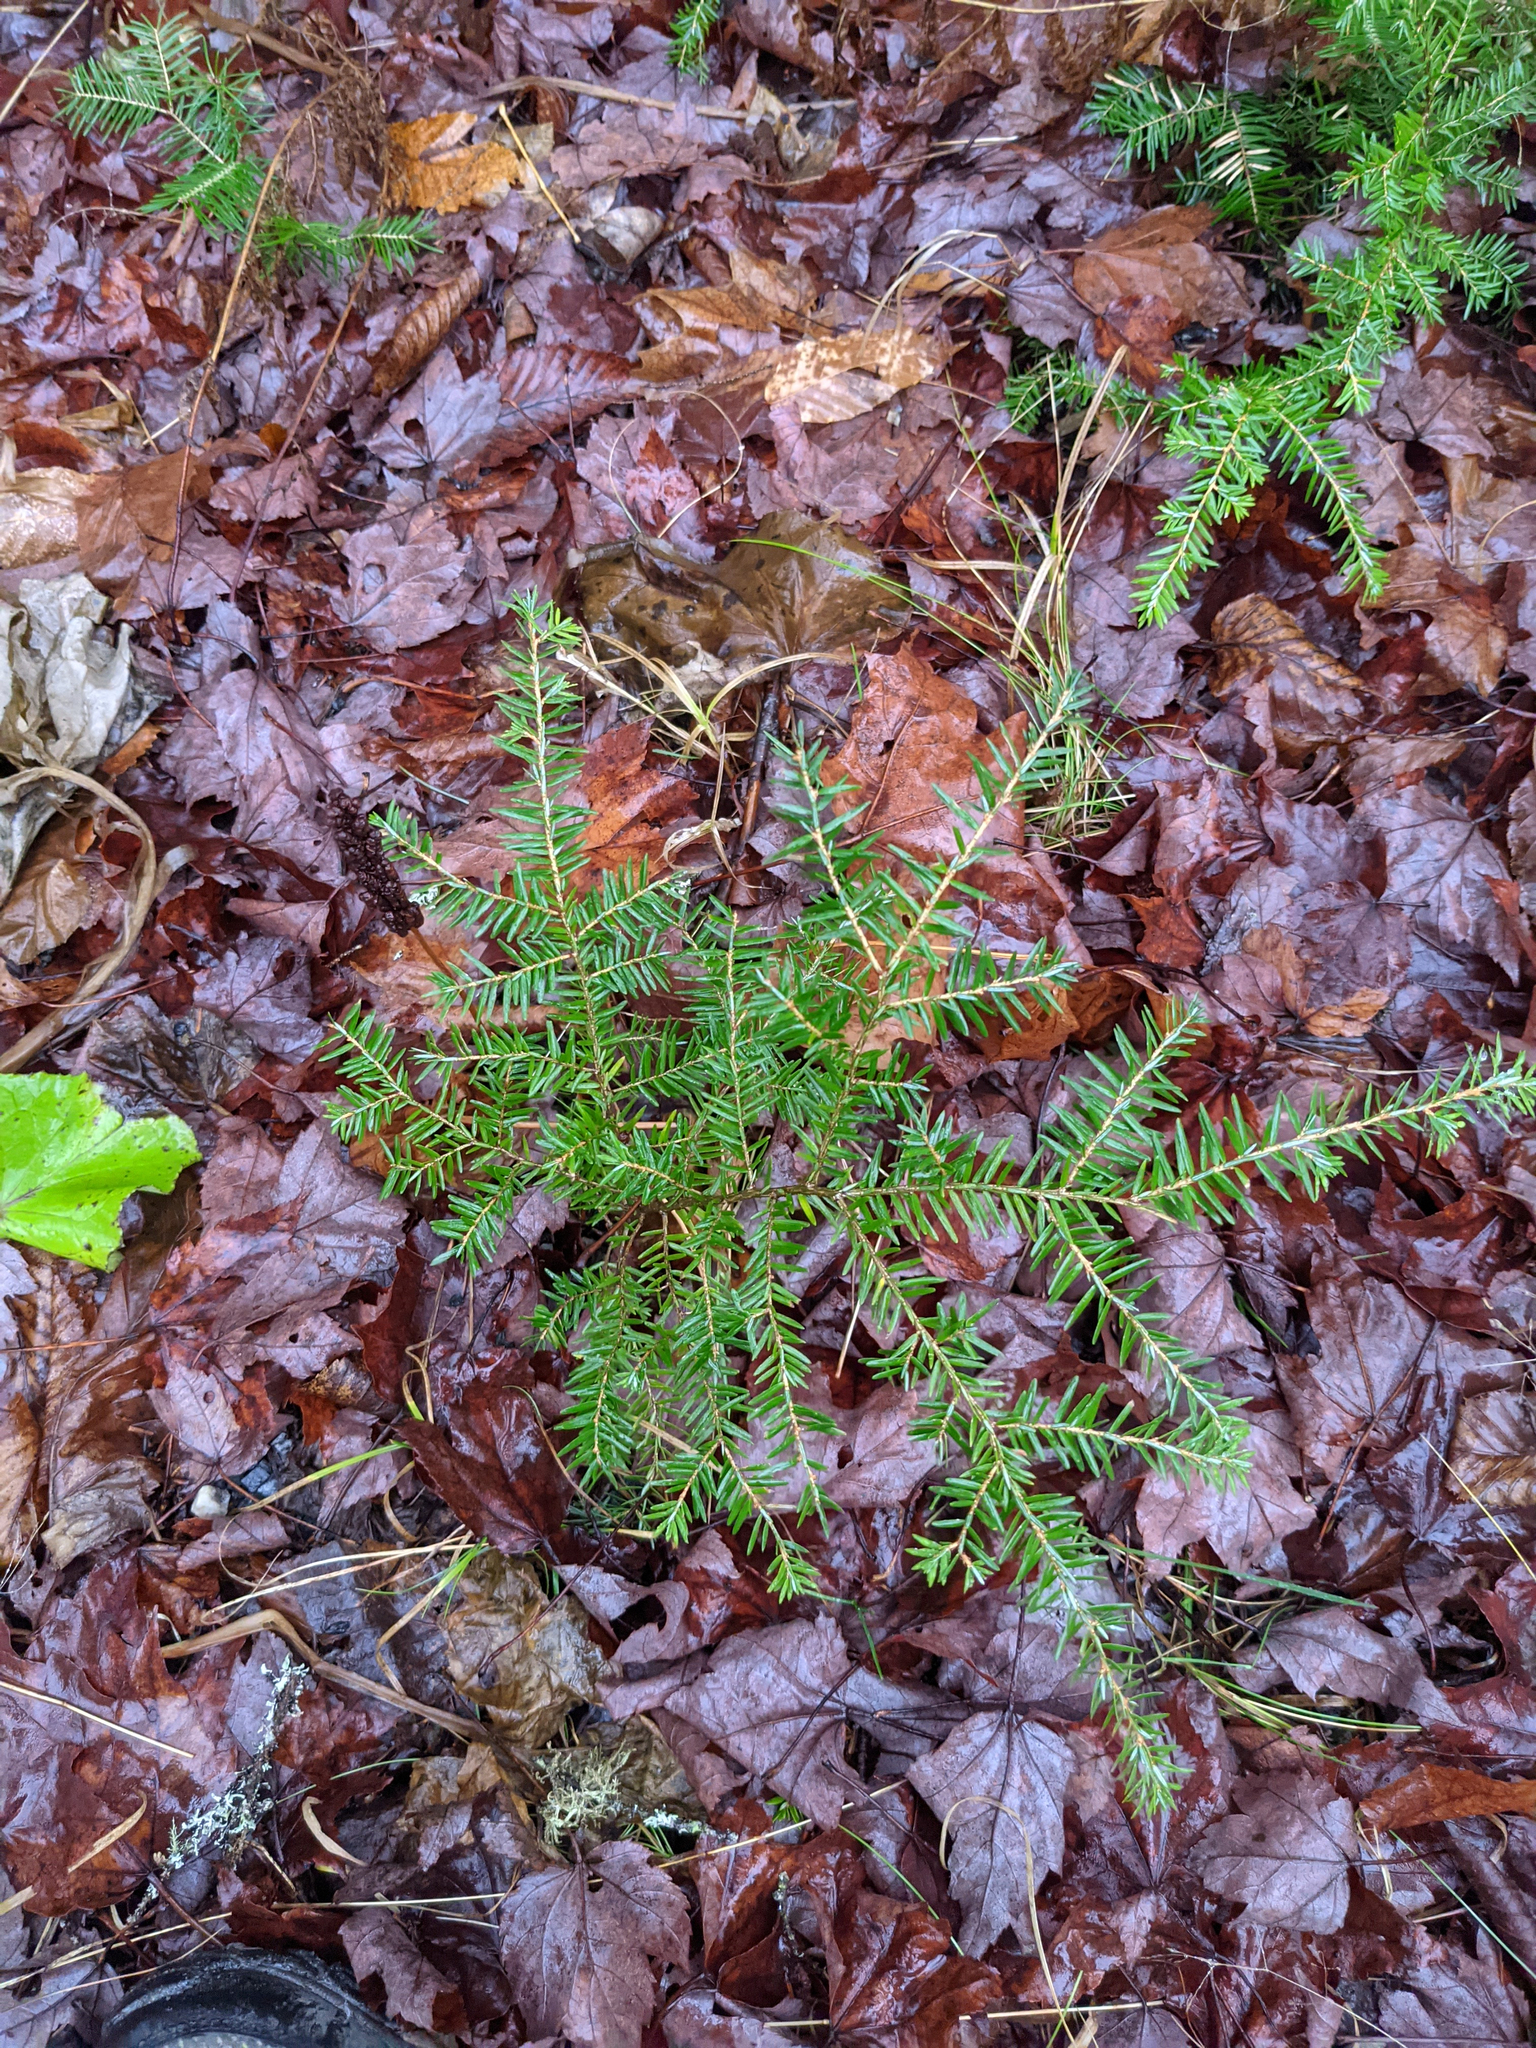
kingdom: Plantae
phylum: Tracheophyta
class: Pinopsida
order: Pinales
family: Pinaceae
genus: Tsuga
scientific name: Tsuga canadensis
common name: Eastern hemlock
